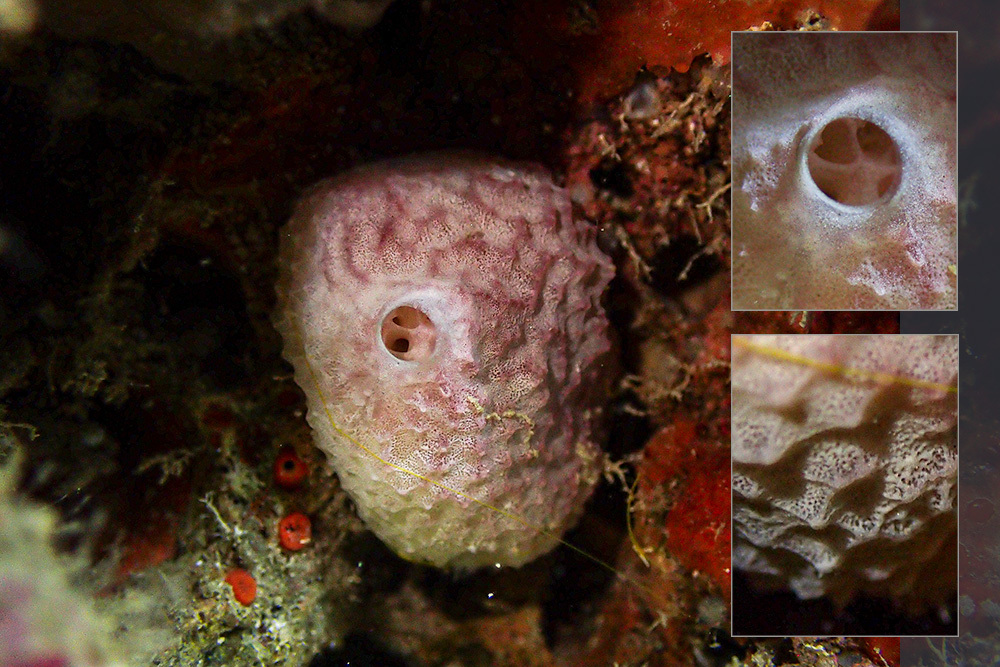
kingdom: Animalia
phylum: Porifera
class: Demospongiae
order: Dictyoceratida
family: Irciniidae
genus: Ircinia
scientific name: Ircinia variabilis
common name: Variable loggerhead sponge
